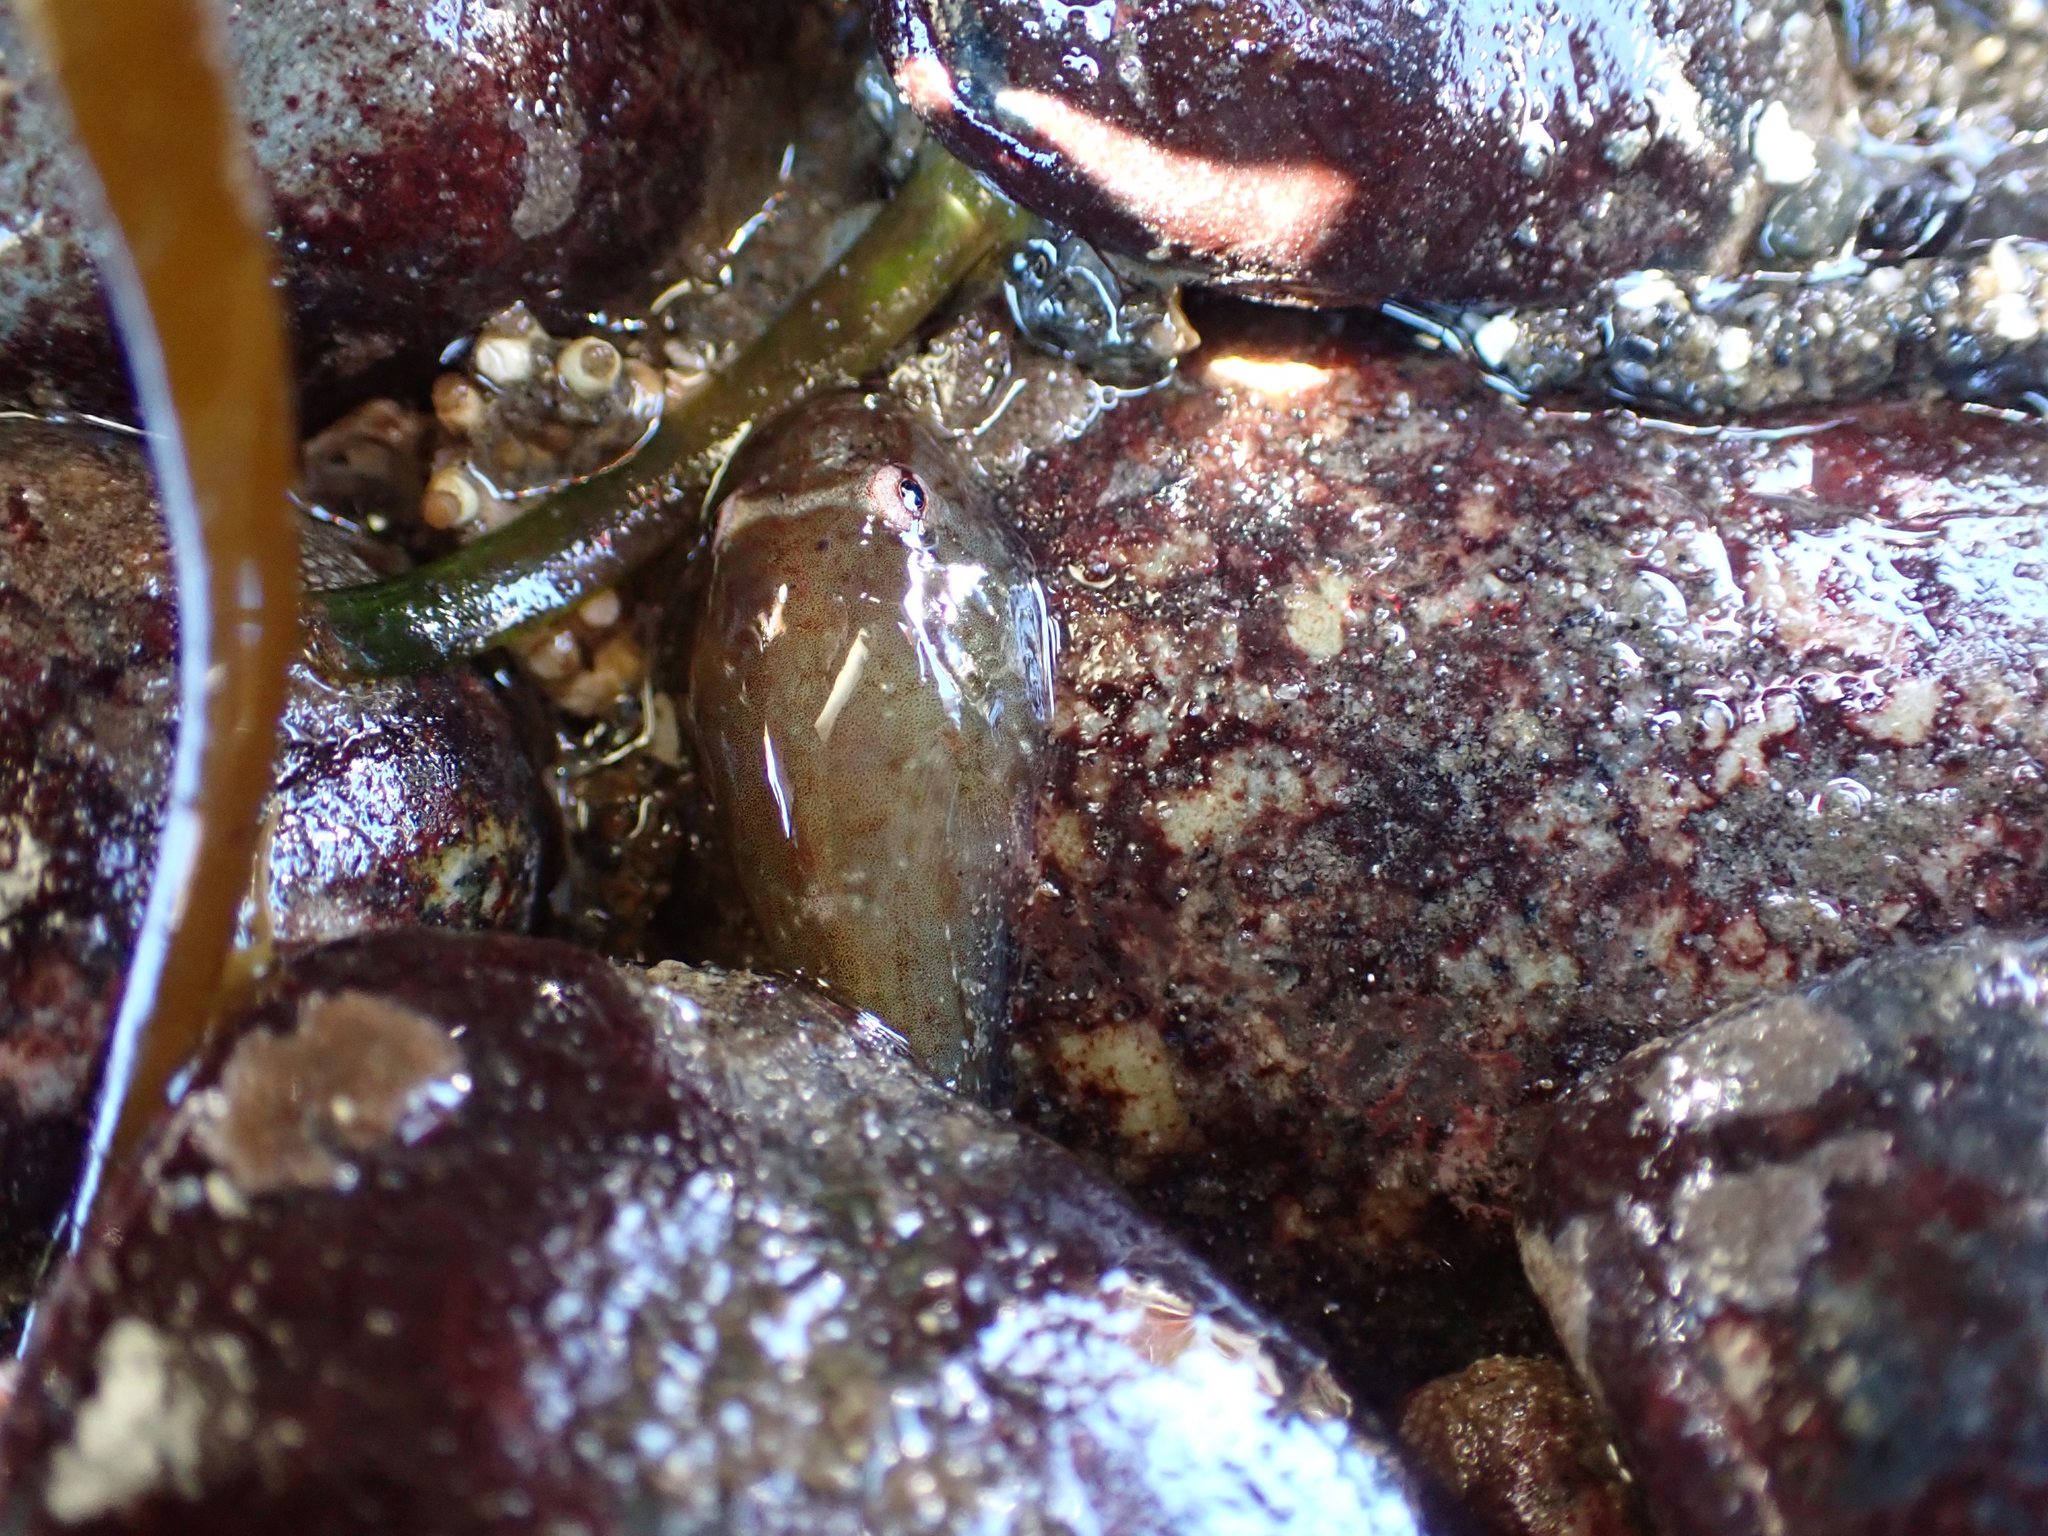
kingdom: Animalia
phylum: Chordata
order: Gobiesociformes
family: Gobiesocidae
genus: Gobiesox
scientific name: Gobiesox maeandricus
